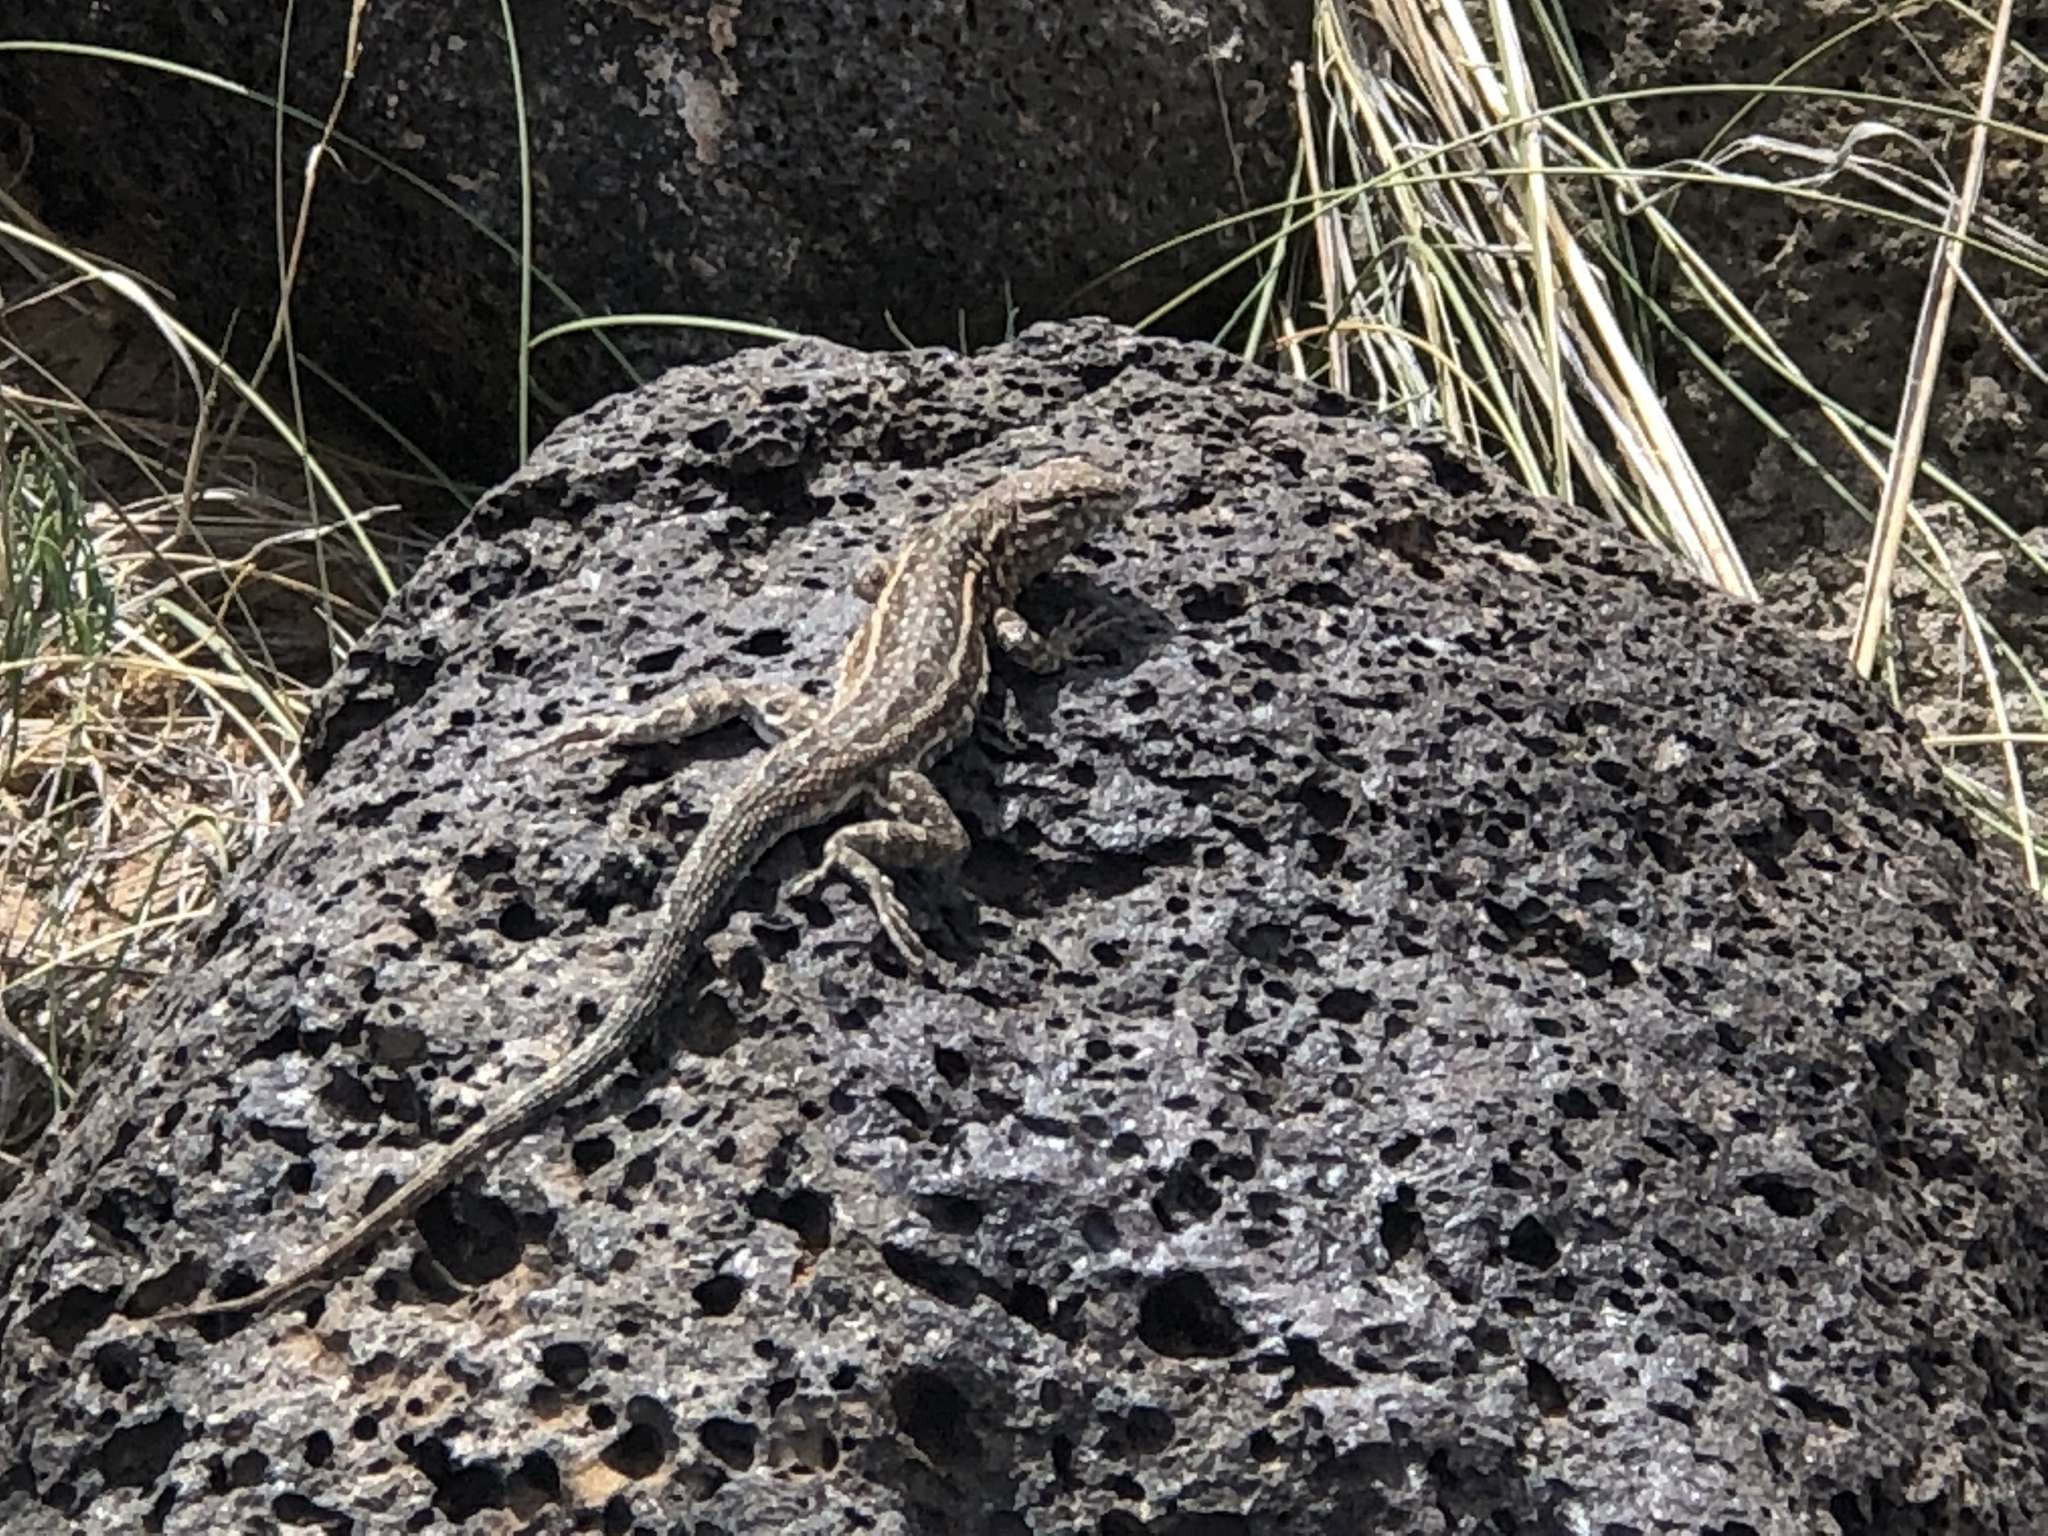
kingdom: Animalia
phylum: Chordata
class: Squamata
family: Phrynosomatidae
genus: Uta
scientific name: Uta stansburiana
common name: Side-blotched lizard
